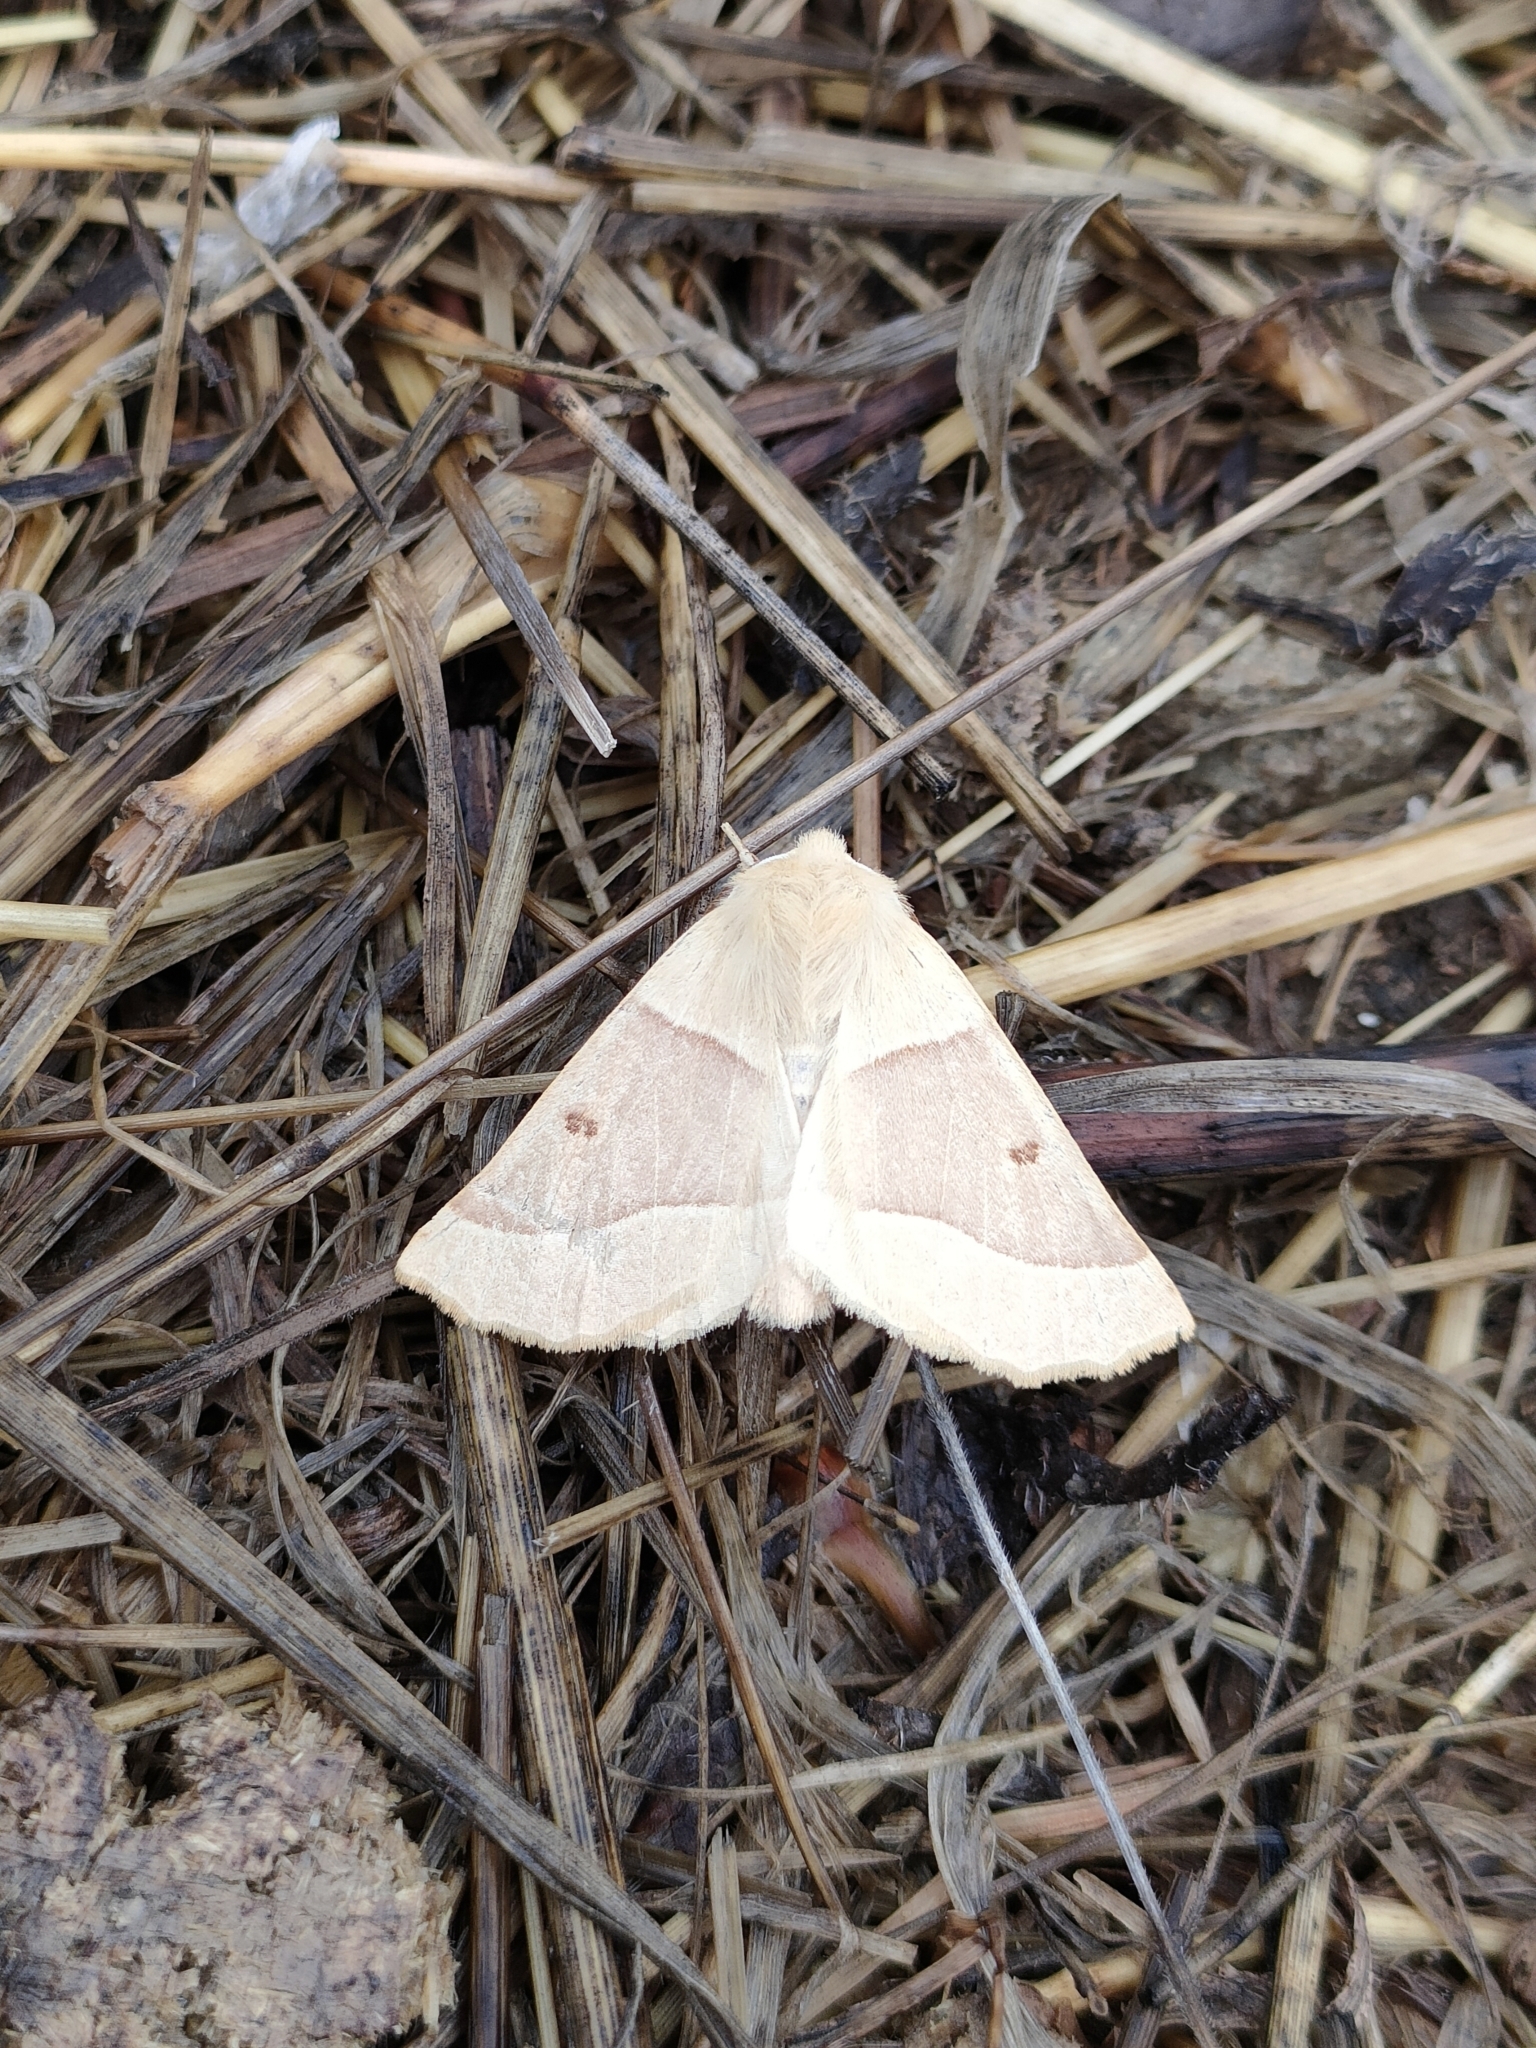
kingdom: Animalia
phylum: Arthropoda
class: Insecta
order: Lepidoptera
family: Geometridae
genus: Crocallis
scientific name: Crocallis elinguaria
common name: Scalloped oak
